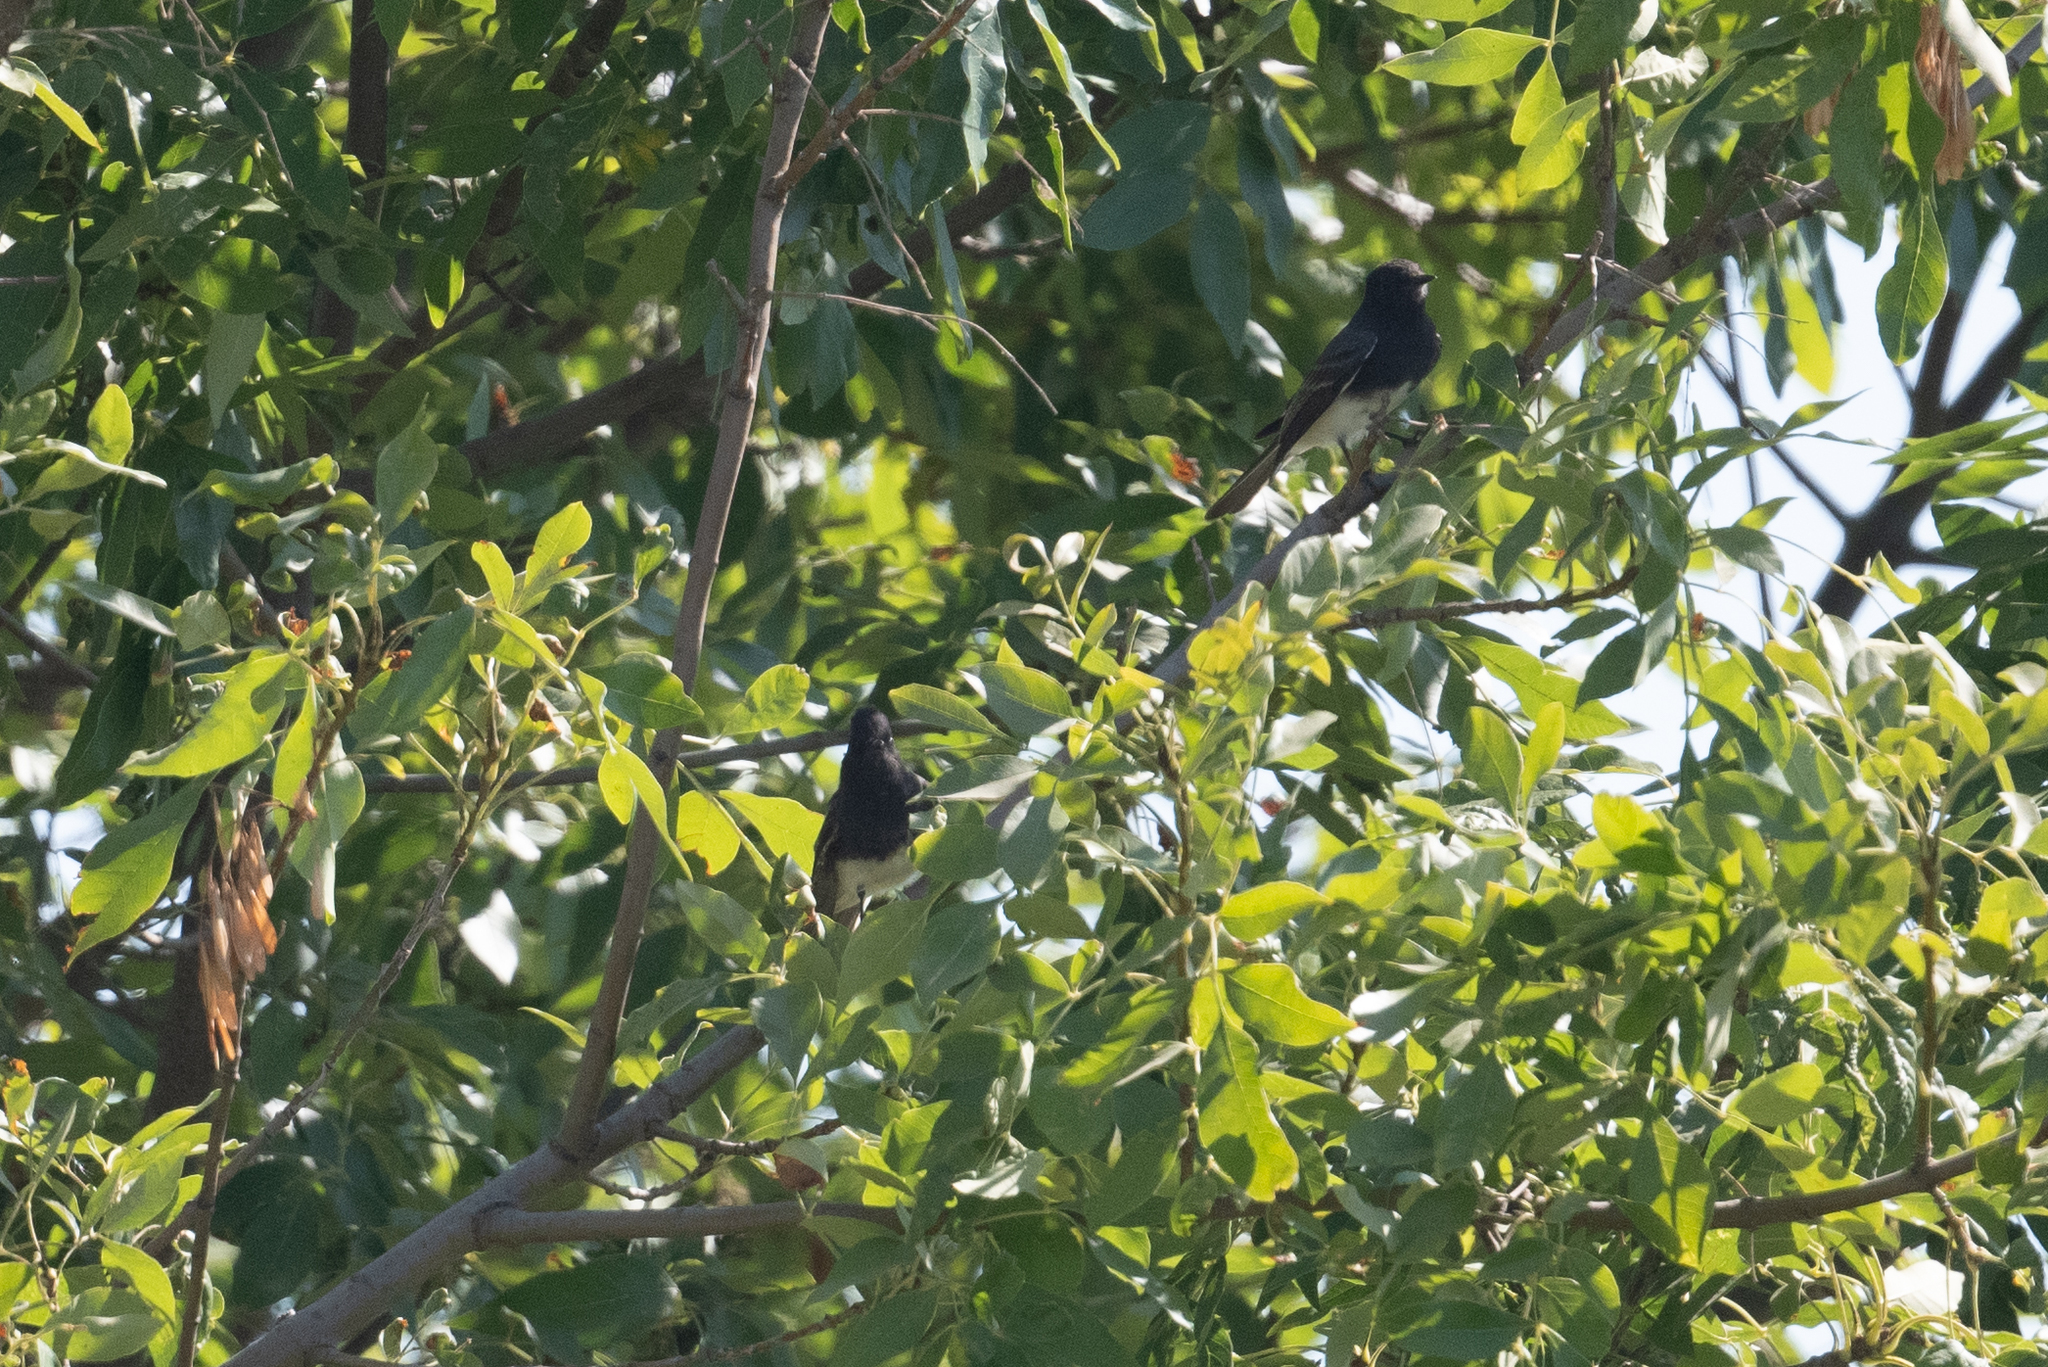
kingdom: Animalia
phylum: Chordata
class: Aves
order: Passeriformes
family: Tyrannidae
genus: Sayornis
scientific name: Sayornis nigricans
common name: Black phoebe
